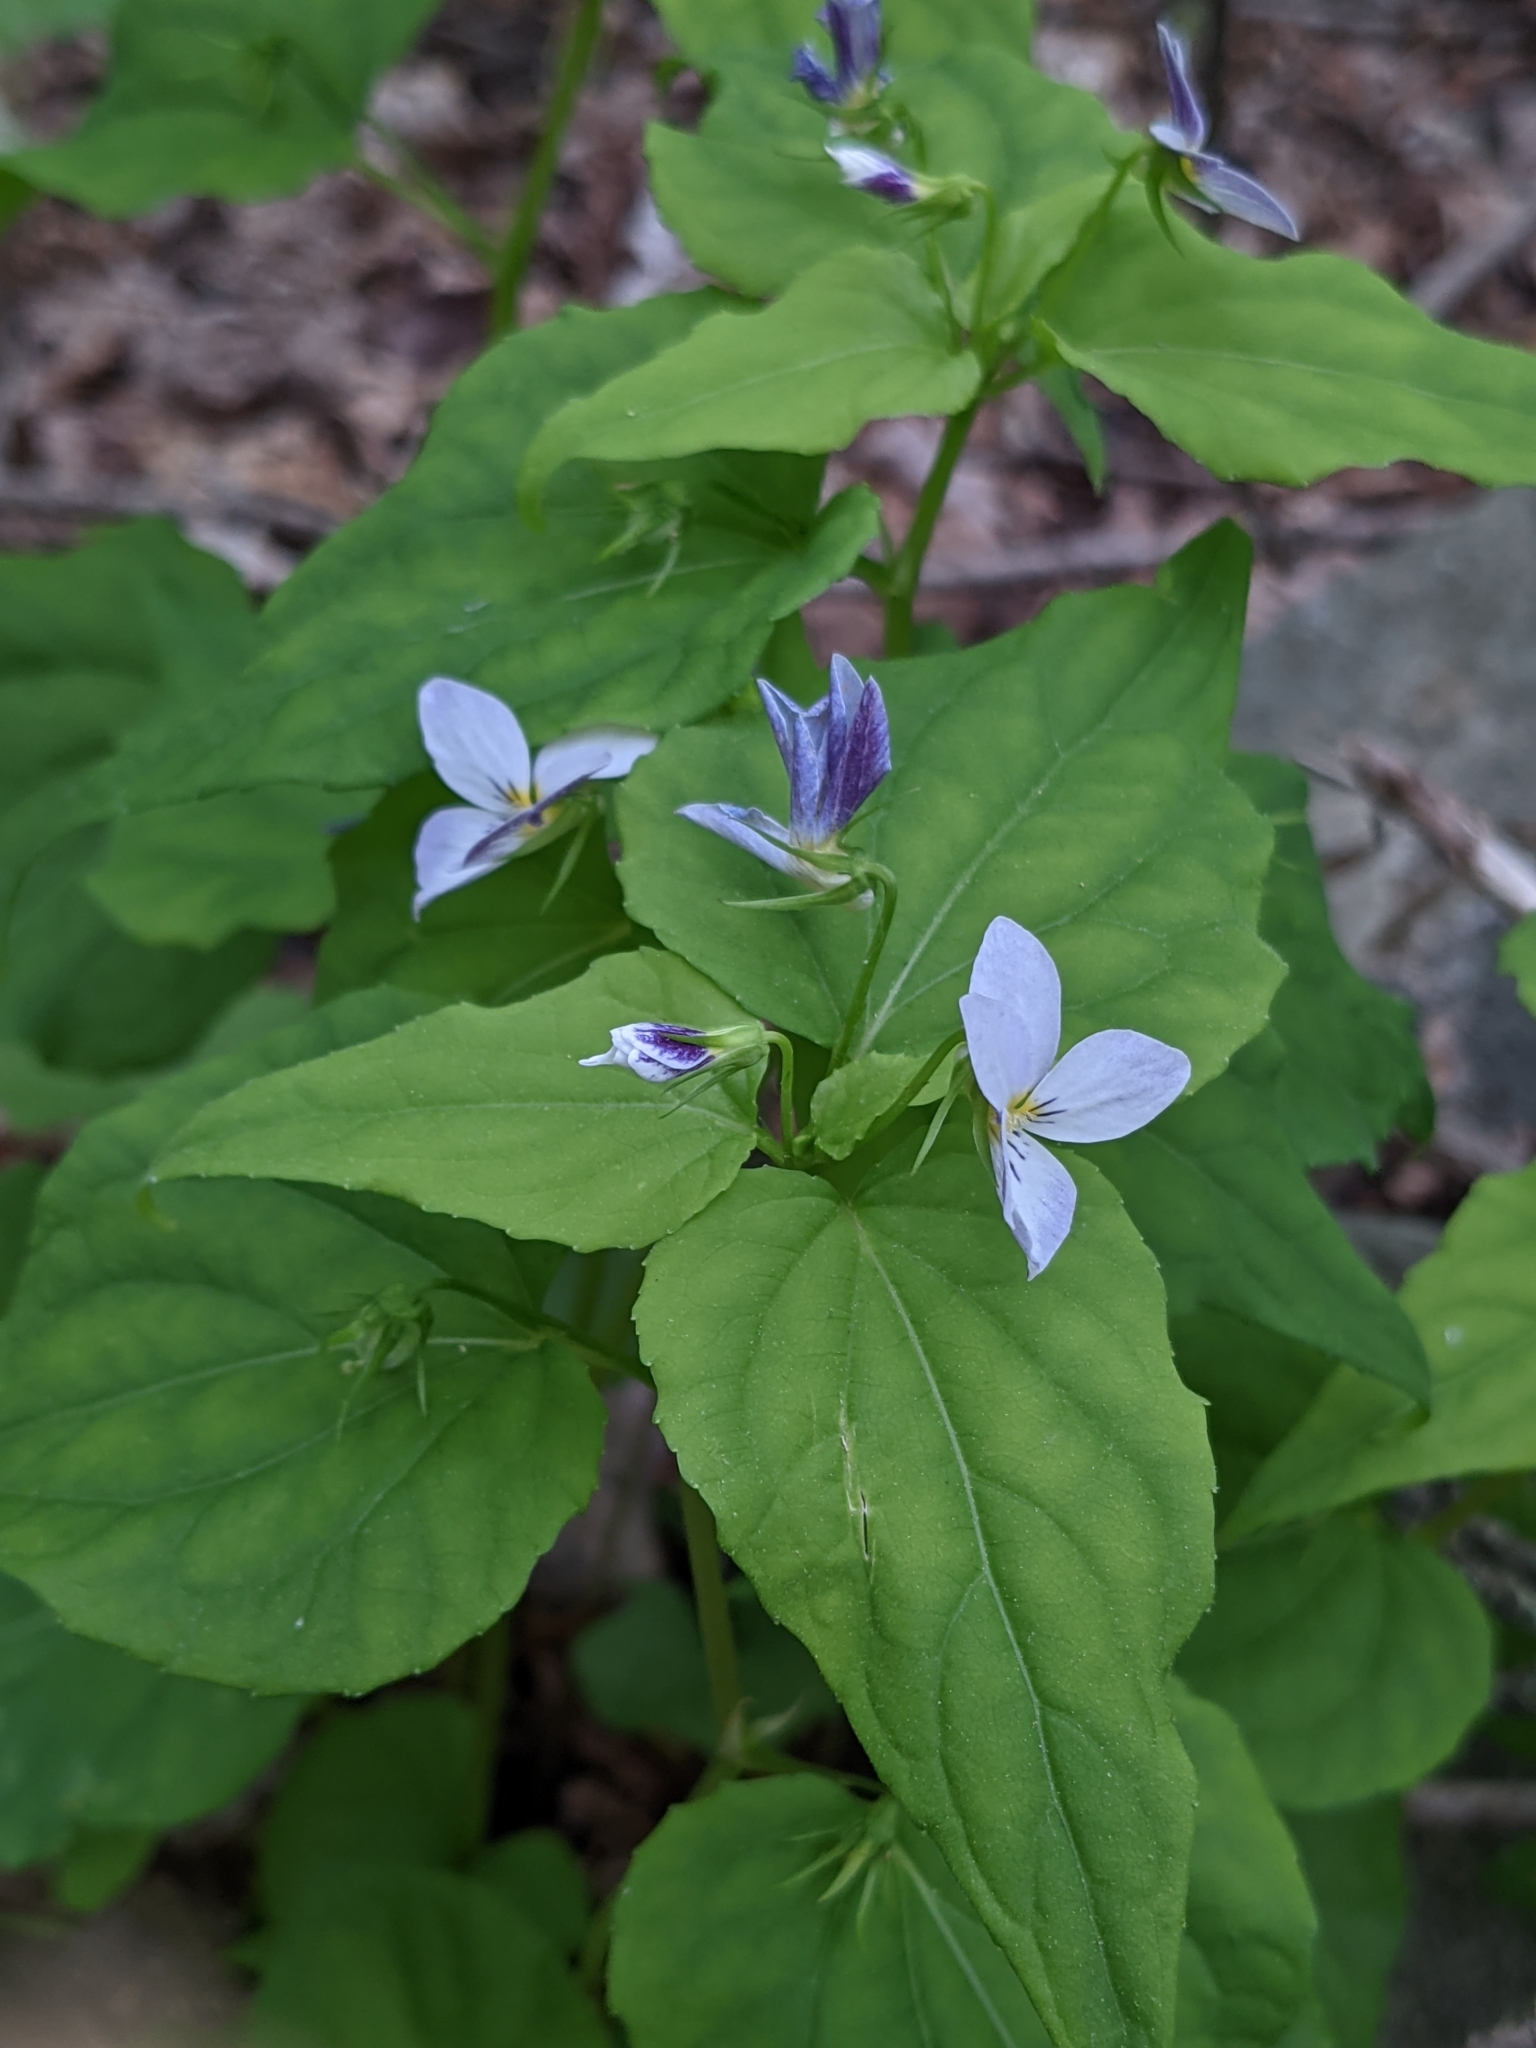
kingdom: Plantae
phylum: Tracheophyta
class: Magnoliopsida
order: Malpighiales
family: Violaceae
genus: Viola
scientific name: Viola canadensis
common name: Canada violet
